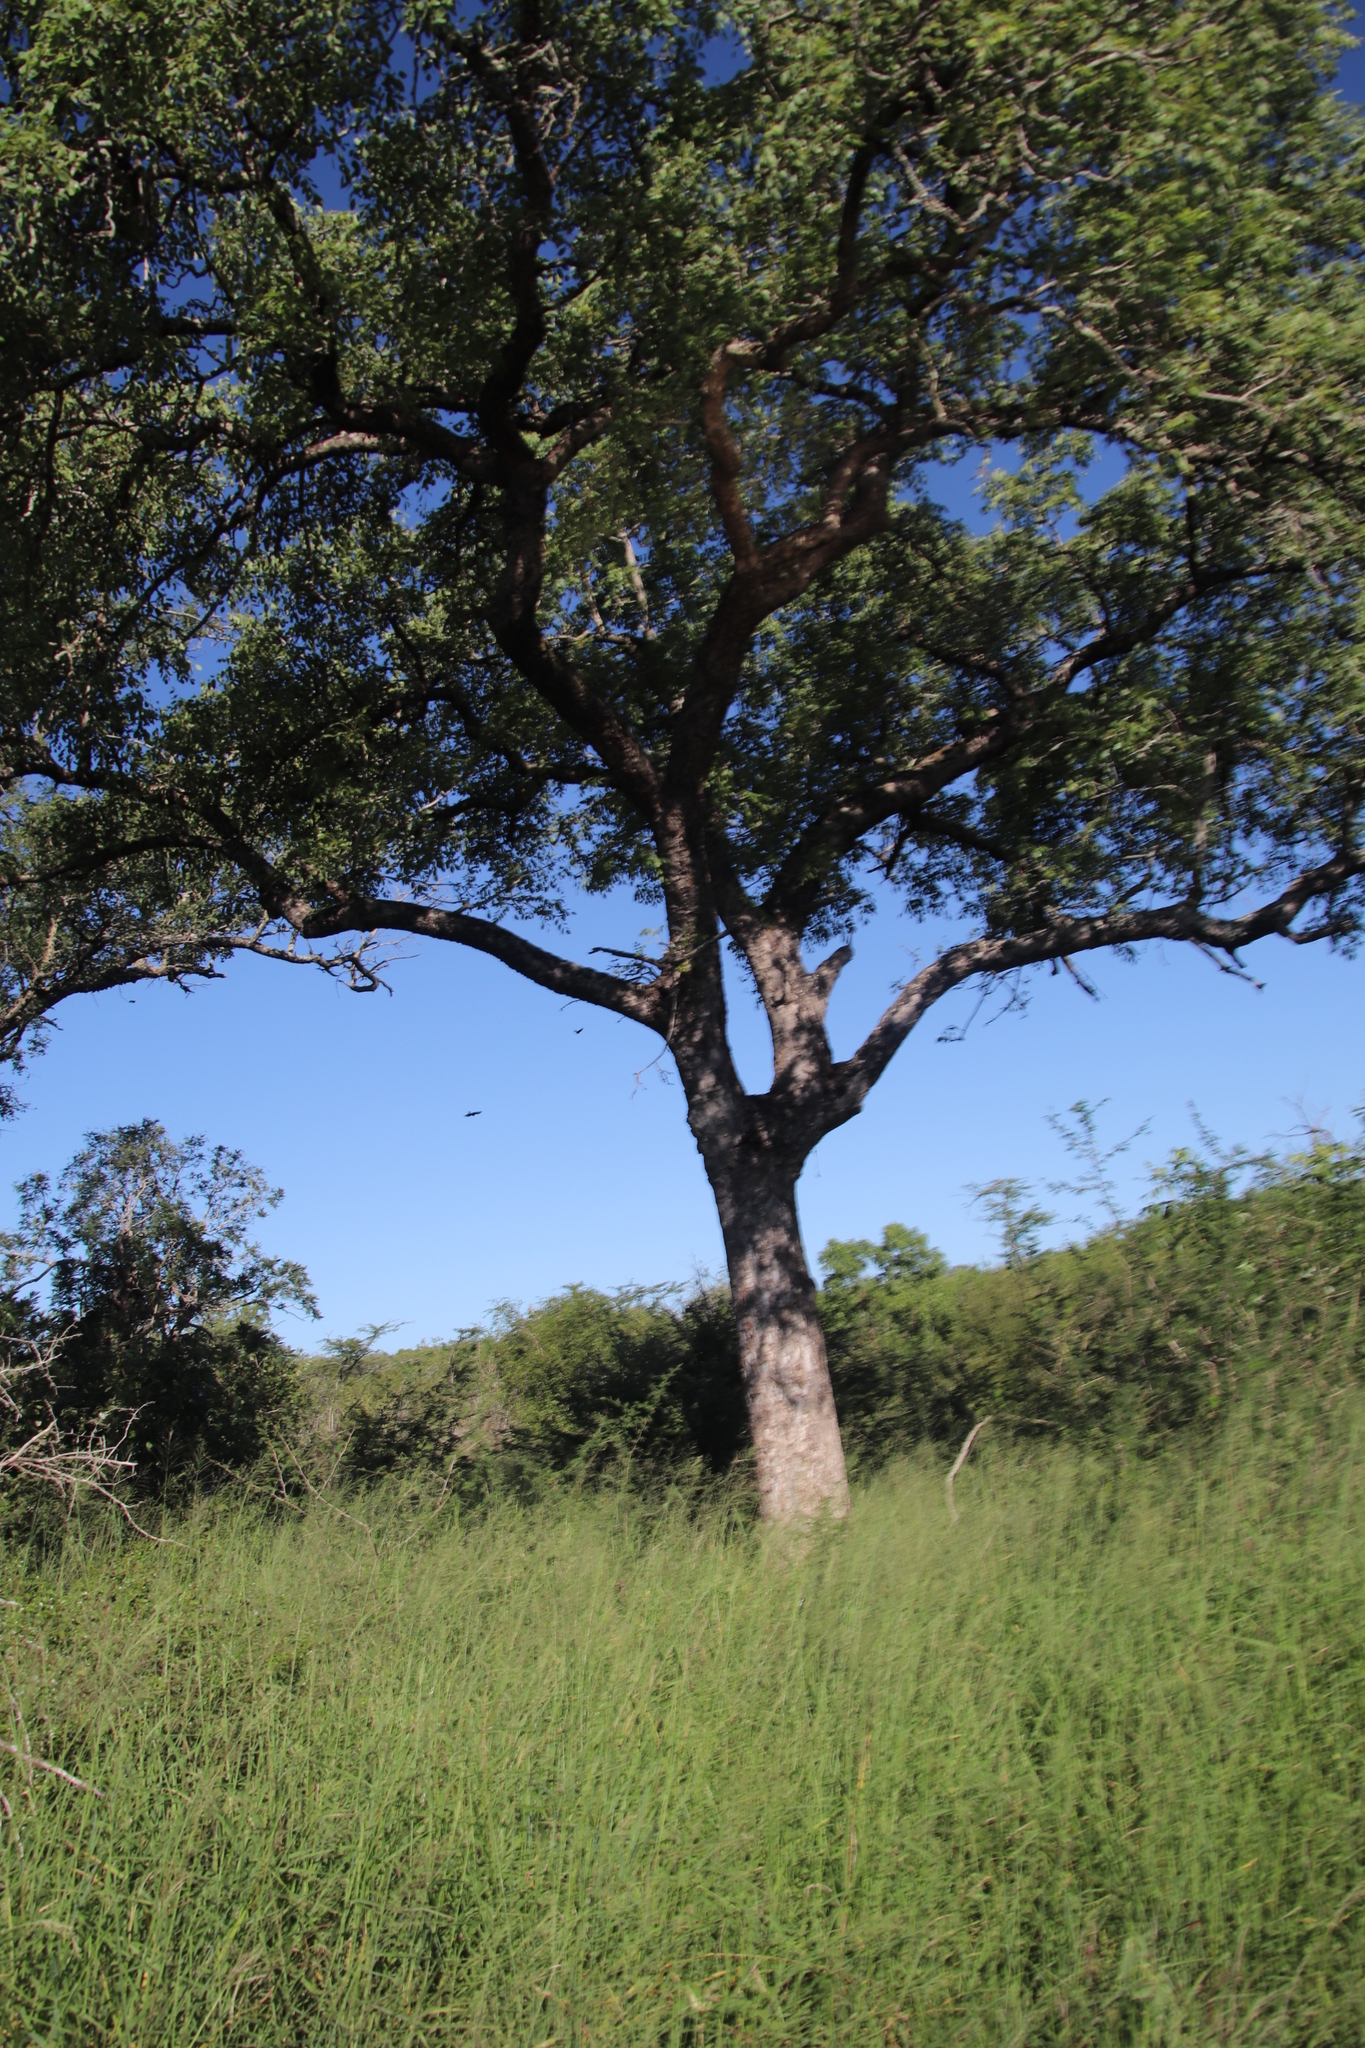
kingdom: Plantae
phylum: Tracheophyta
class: Magnoliopsida
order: Sapindales
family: Anacardiaceae
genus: Sclerocarya
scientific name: Sclerocarya birrea
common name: Marula
